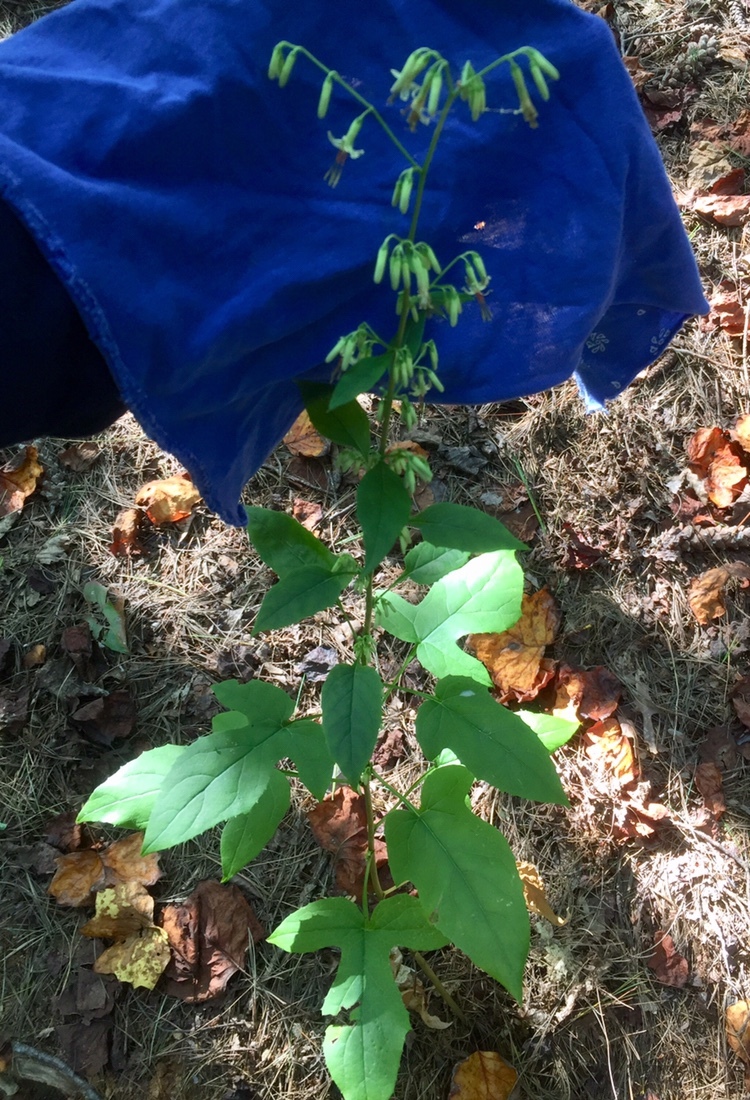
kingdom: Plantae
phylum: Tracheophyta
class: Magnoliopsida
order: Asterales
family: Asteraceae
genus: Nabalus
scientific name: Nabalus altissima
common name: Tall rattlesnakeroot
